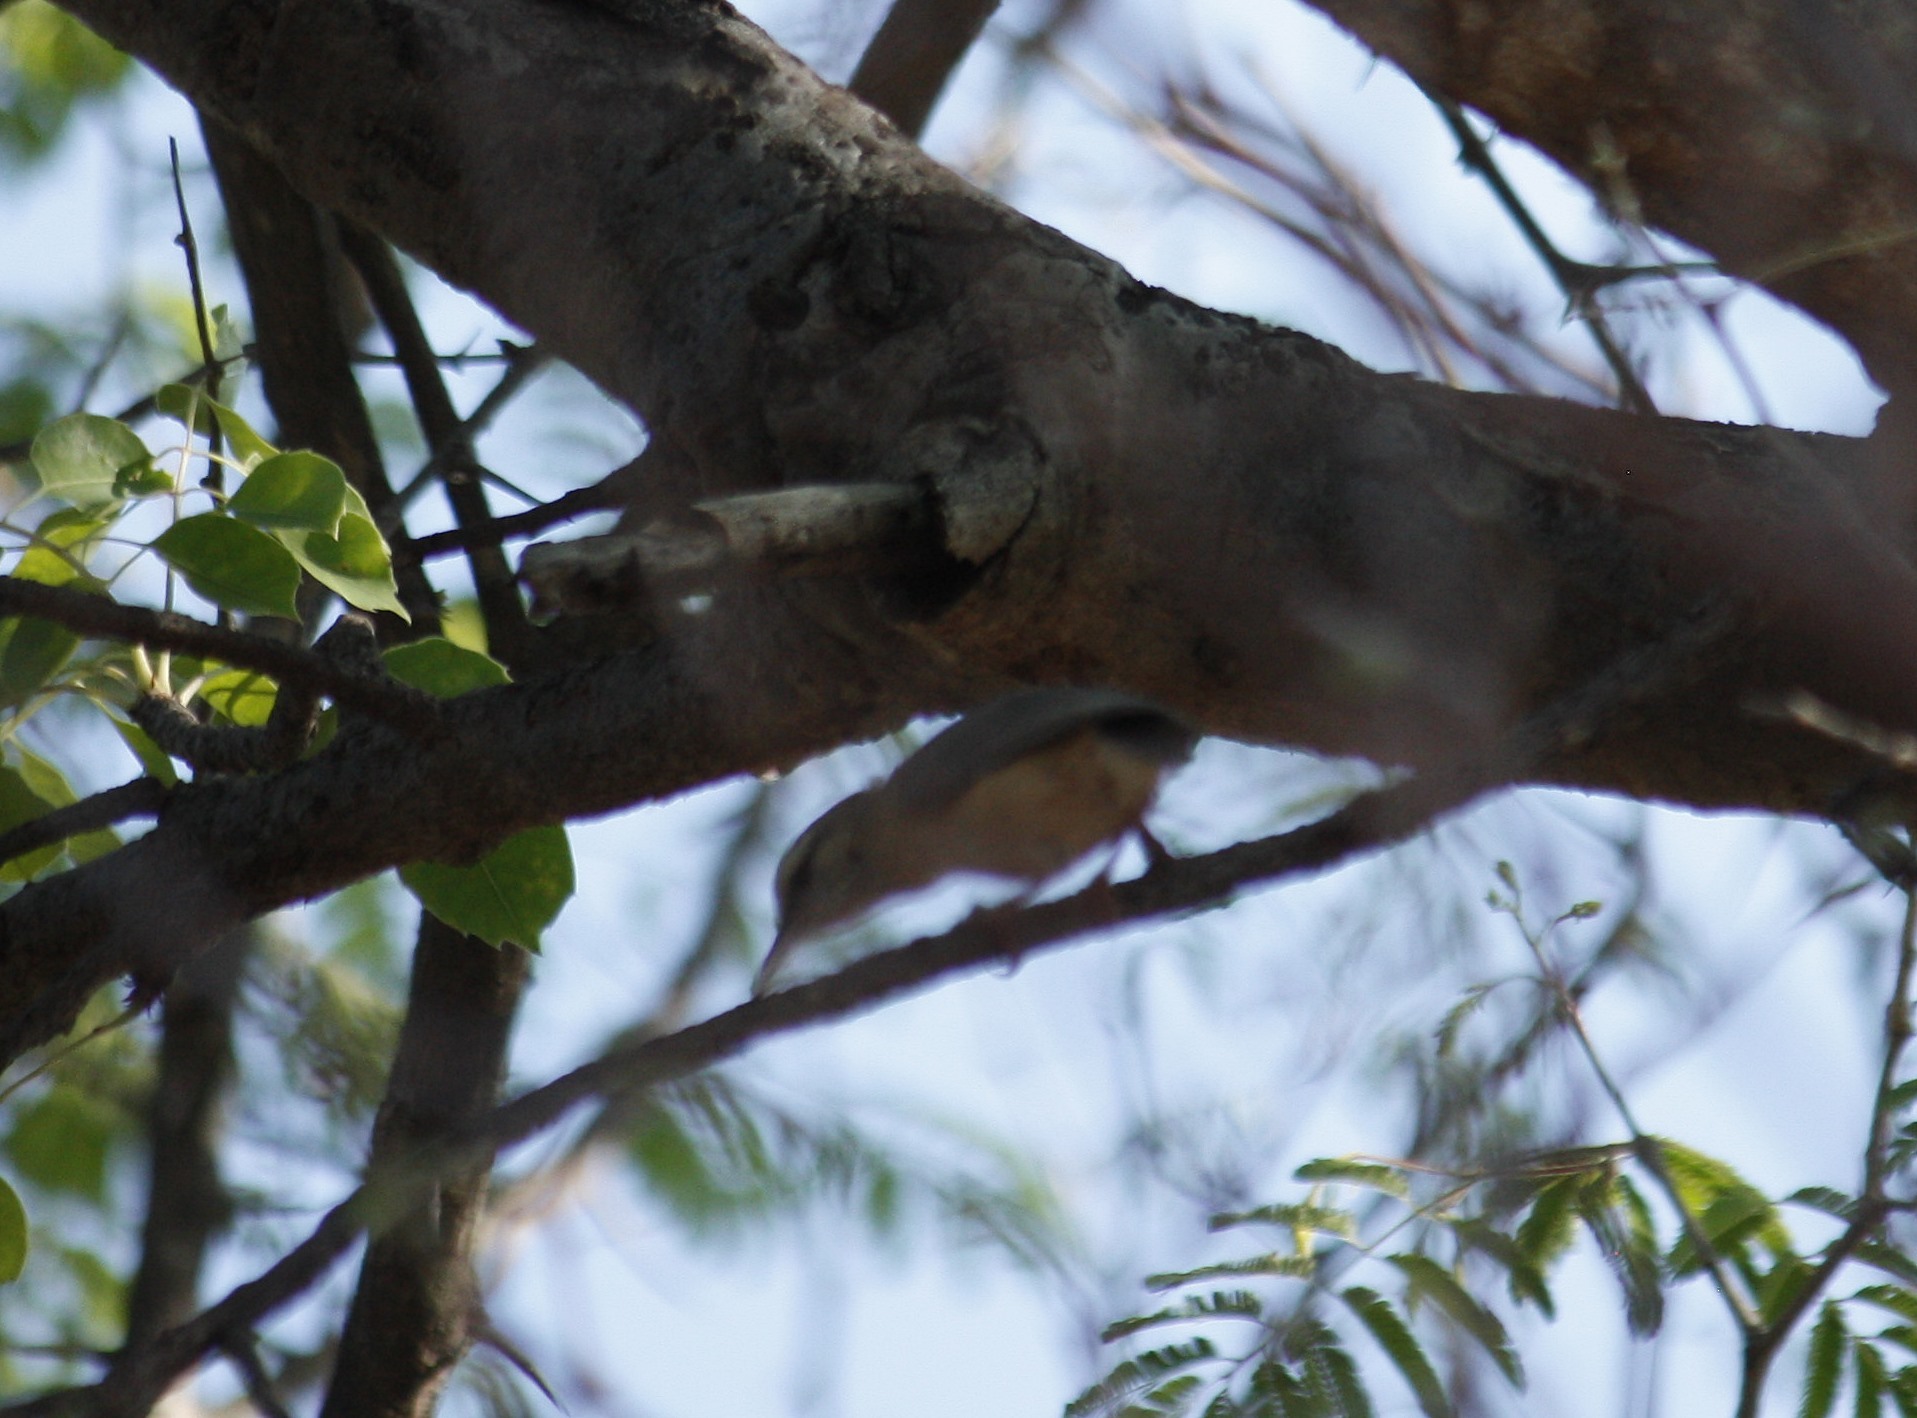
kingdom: Animalia
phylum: Chordata
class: Aves
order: Passeriformes
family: Macrosphenidae
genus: Sylvietta
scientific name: Sylvietta rufescens
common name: Long-billed crombec
